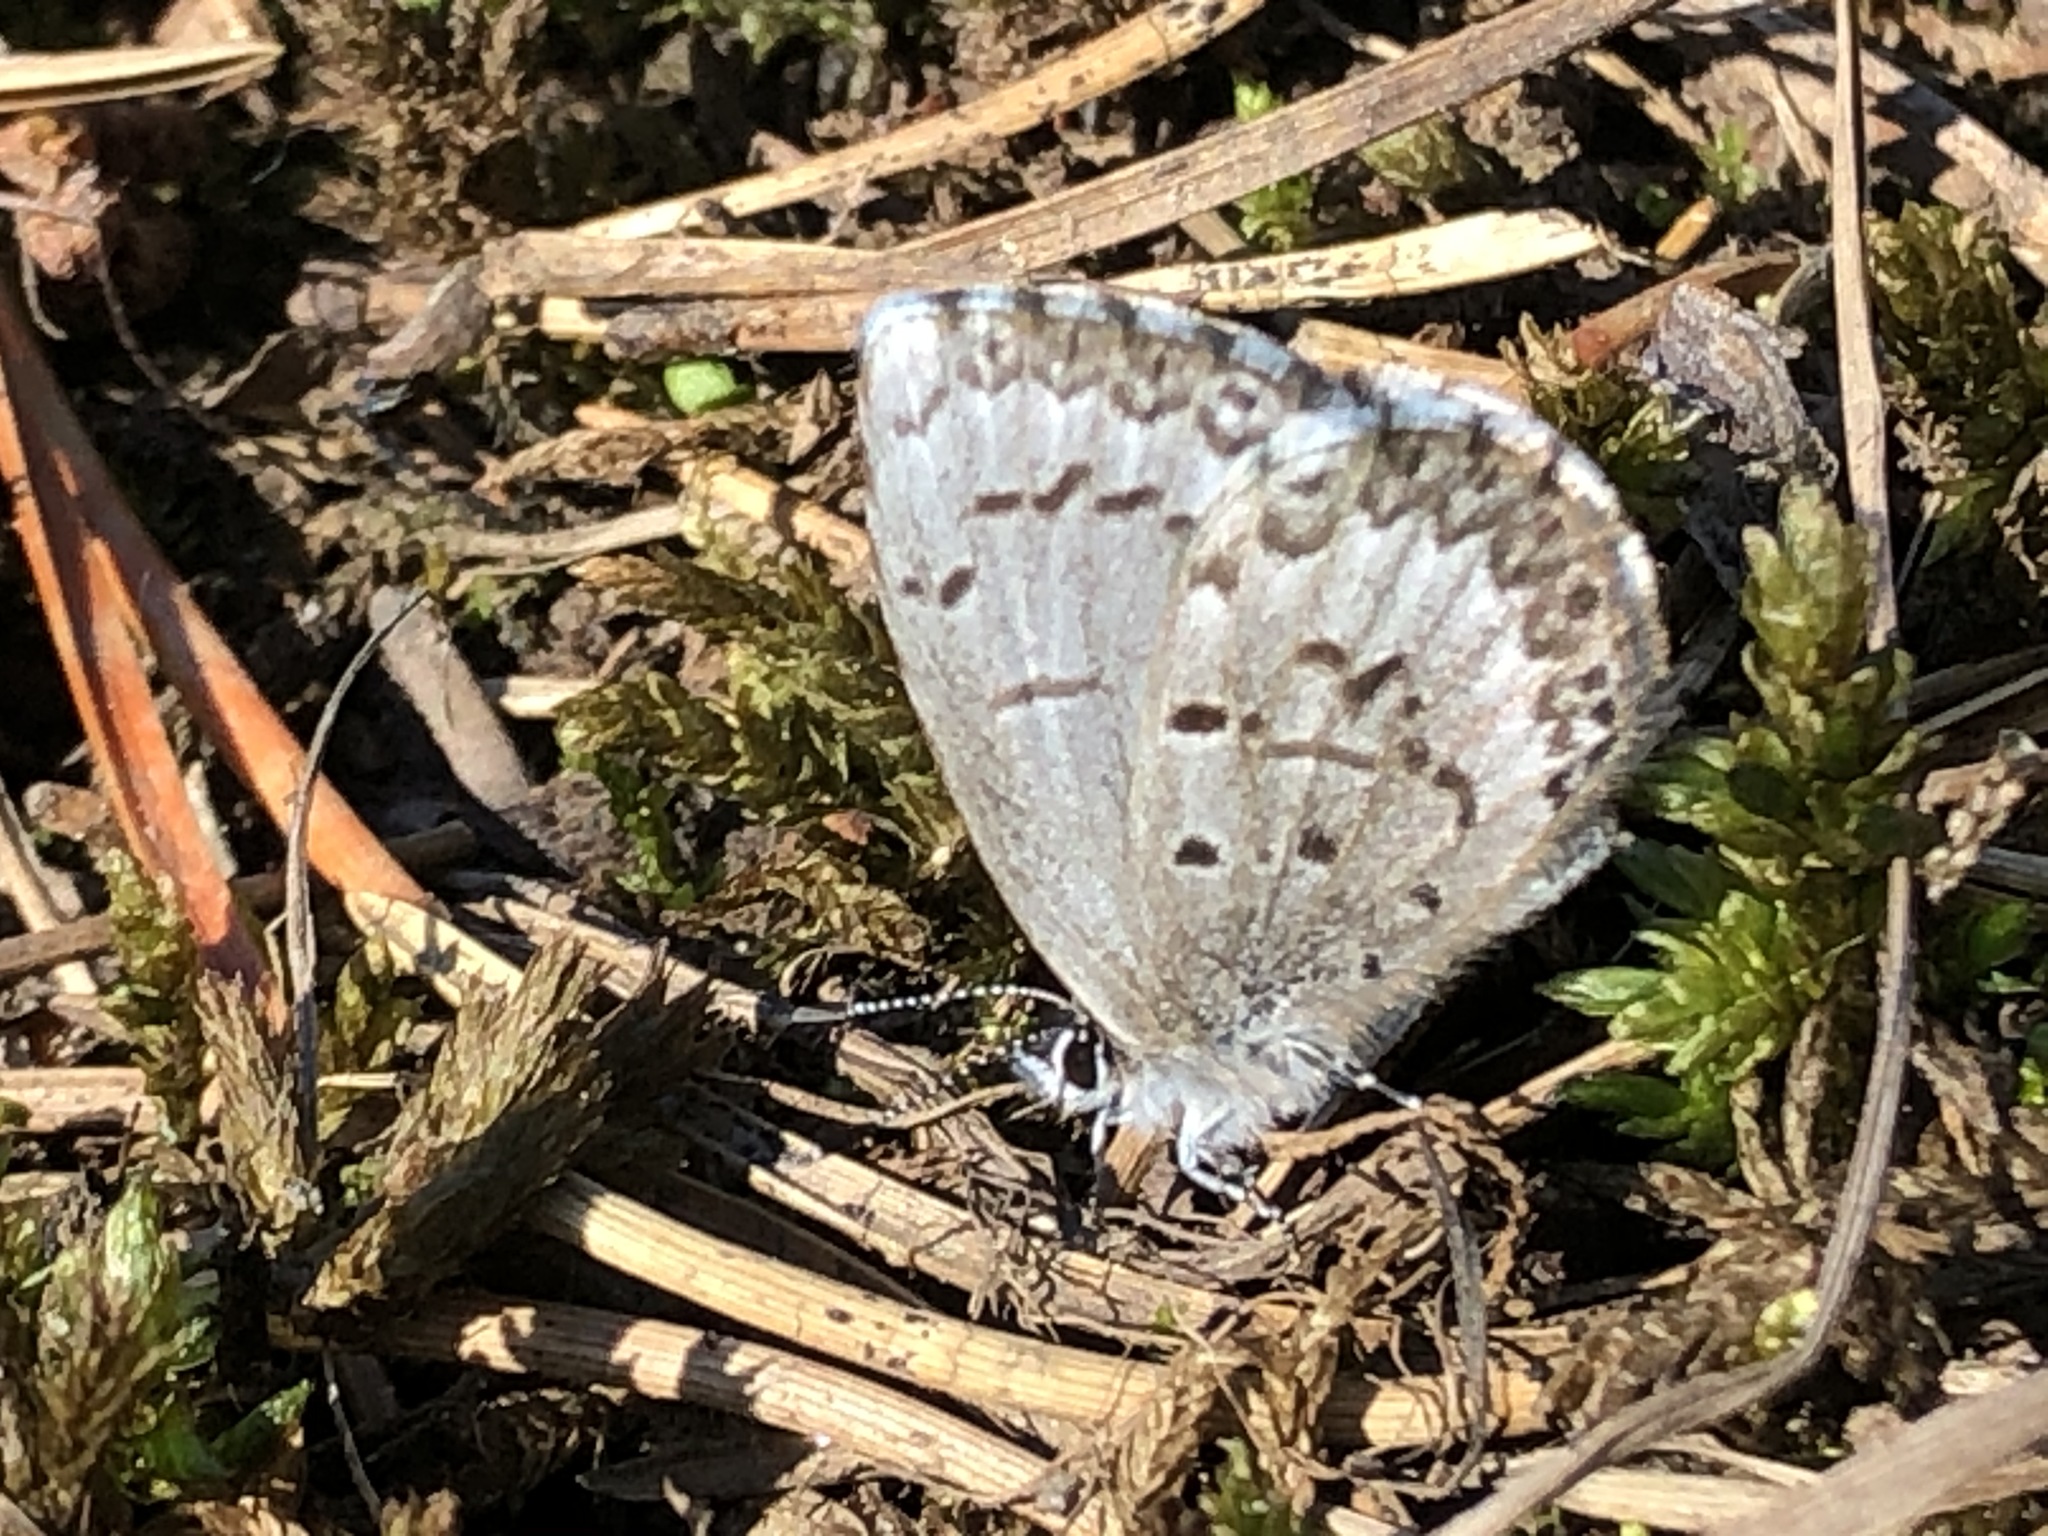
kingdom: Animalia
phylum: Arthropoda
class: Insecta
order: Lepidoptera
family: Lycaenidae
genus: Celastrina
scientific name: Celastrina lucia
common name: Lucia azure
